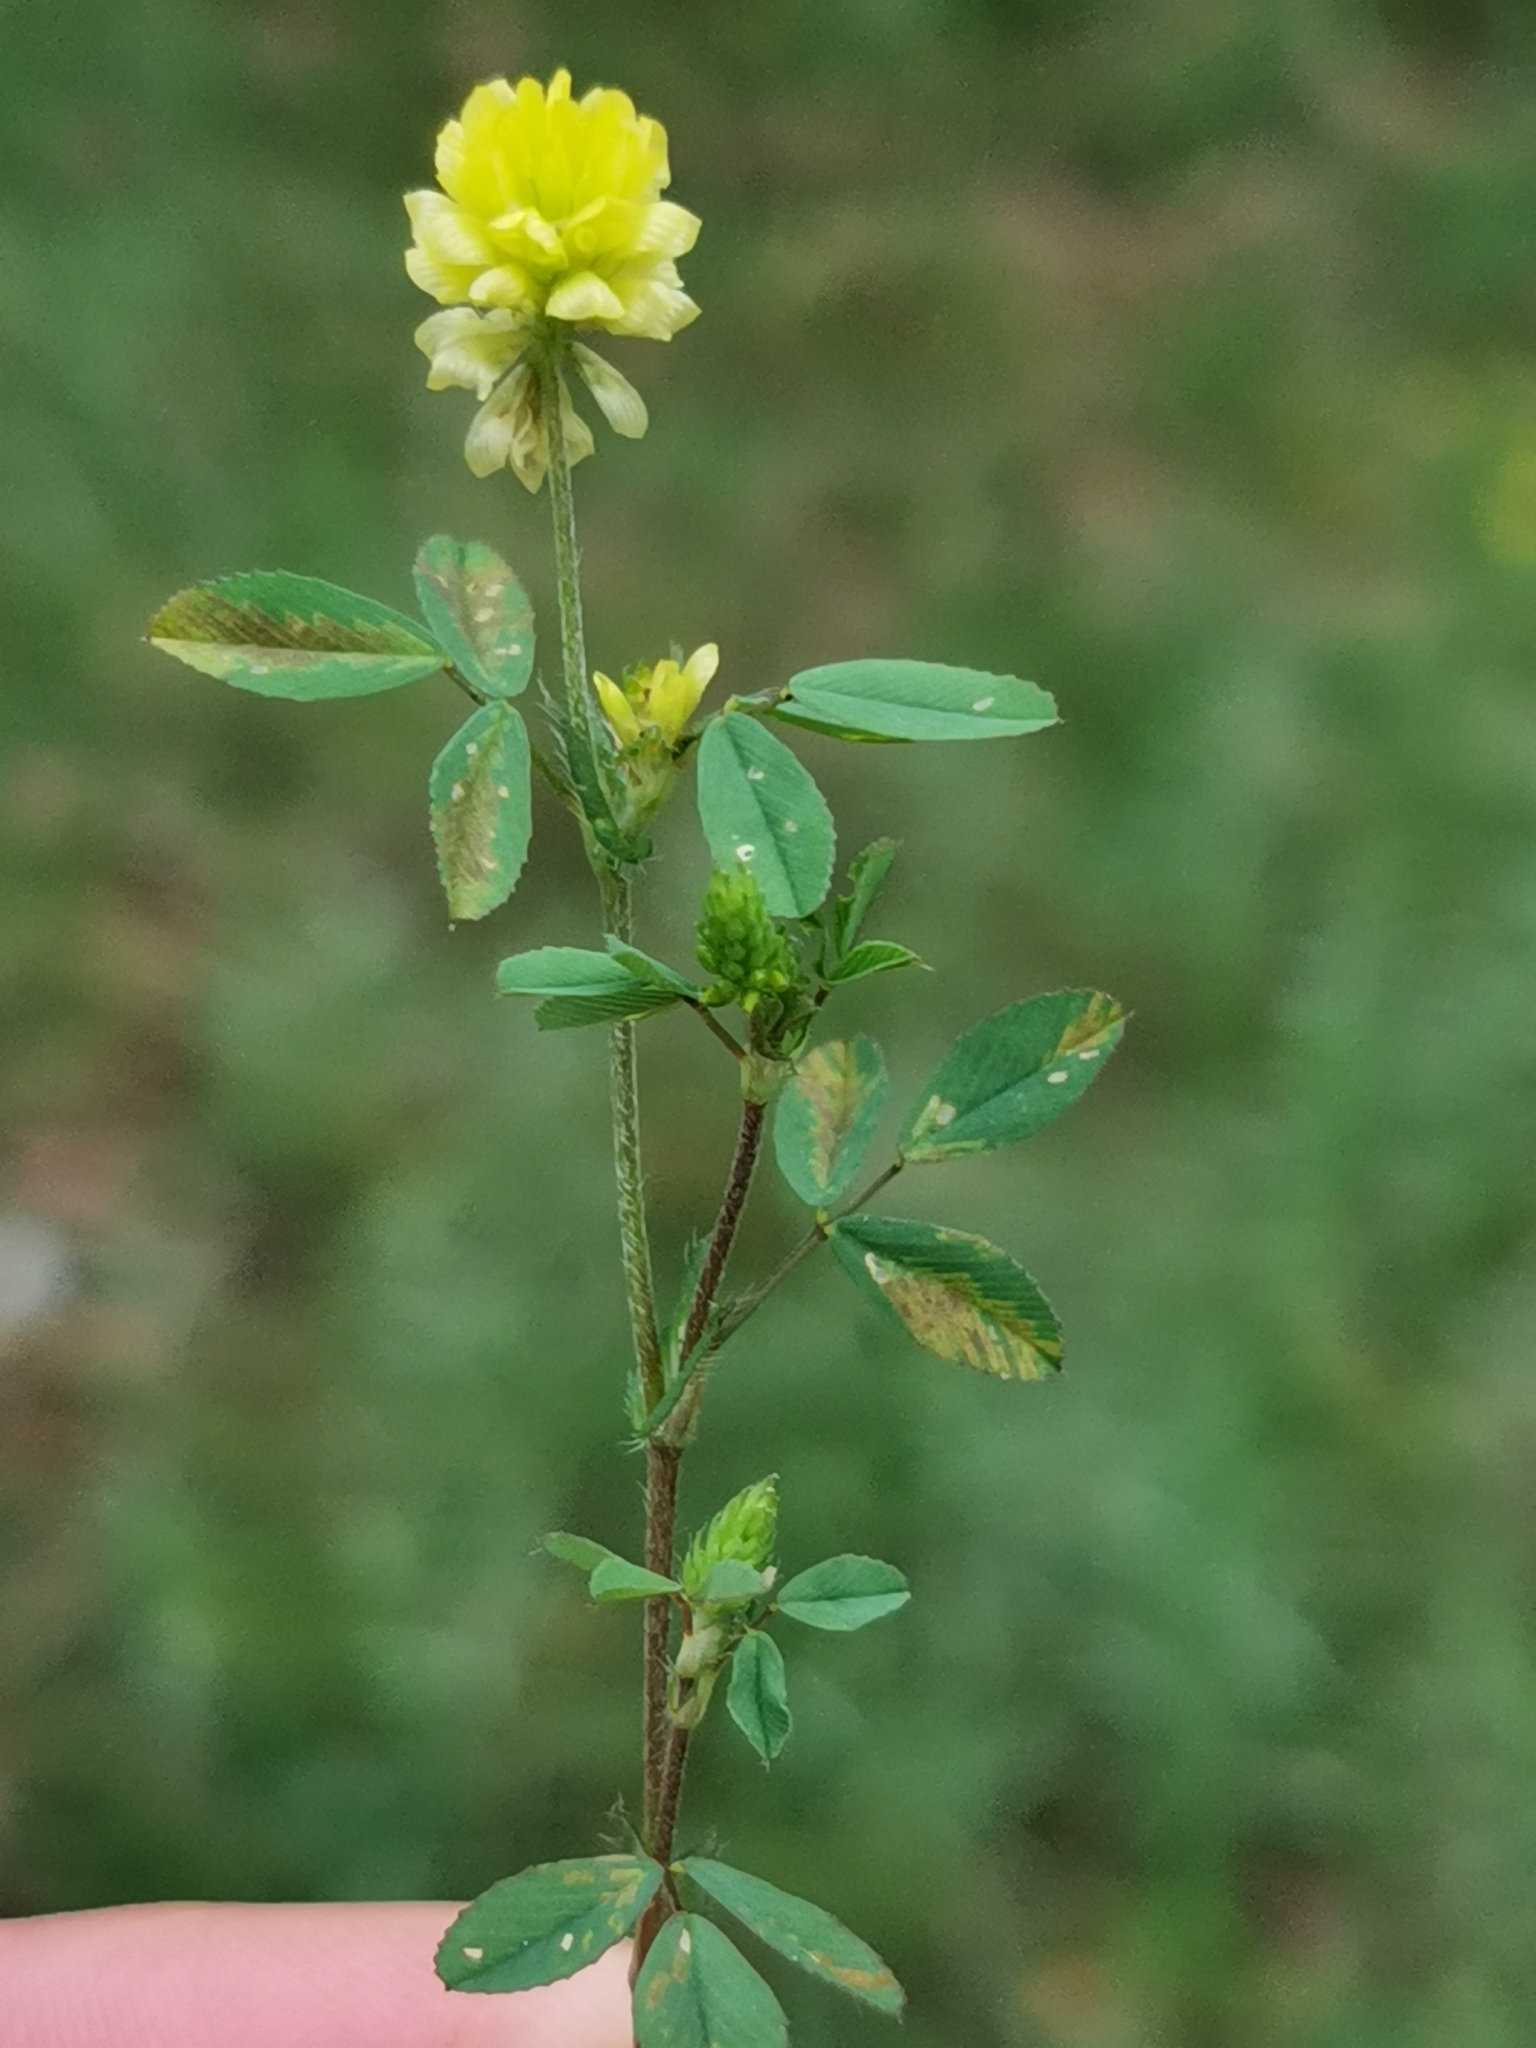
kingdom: Plantae
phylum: Tracheophyta
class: Magnoliopsida
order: Fabales
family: Fabaceae
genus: Trifolium
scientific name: Trifolium campestre
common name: Field clover
